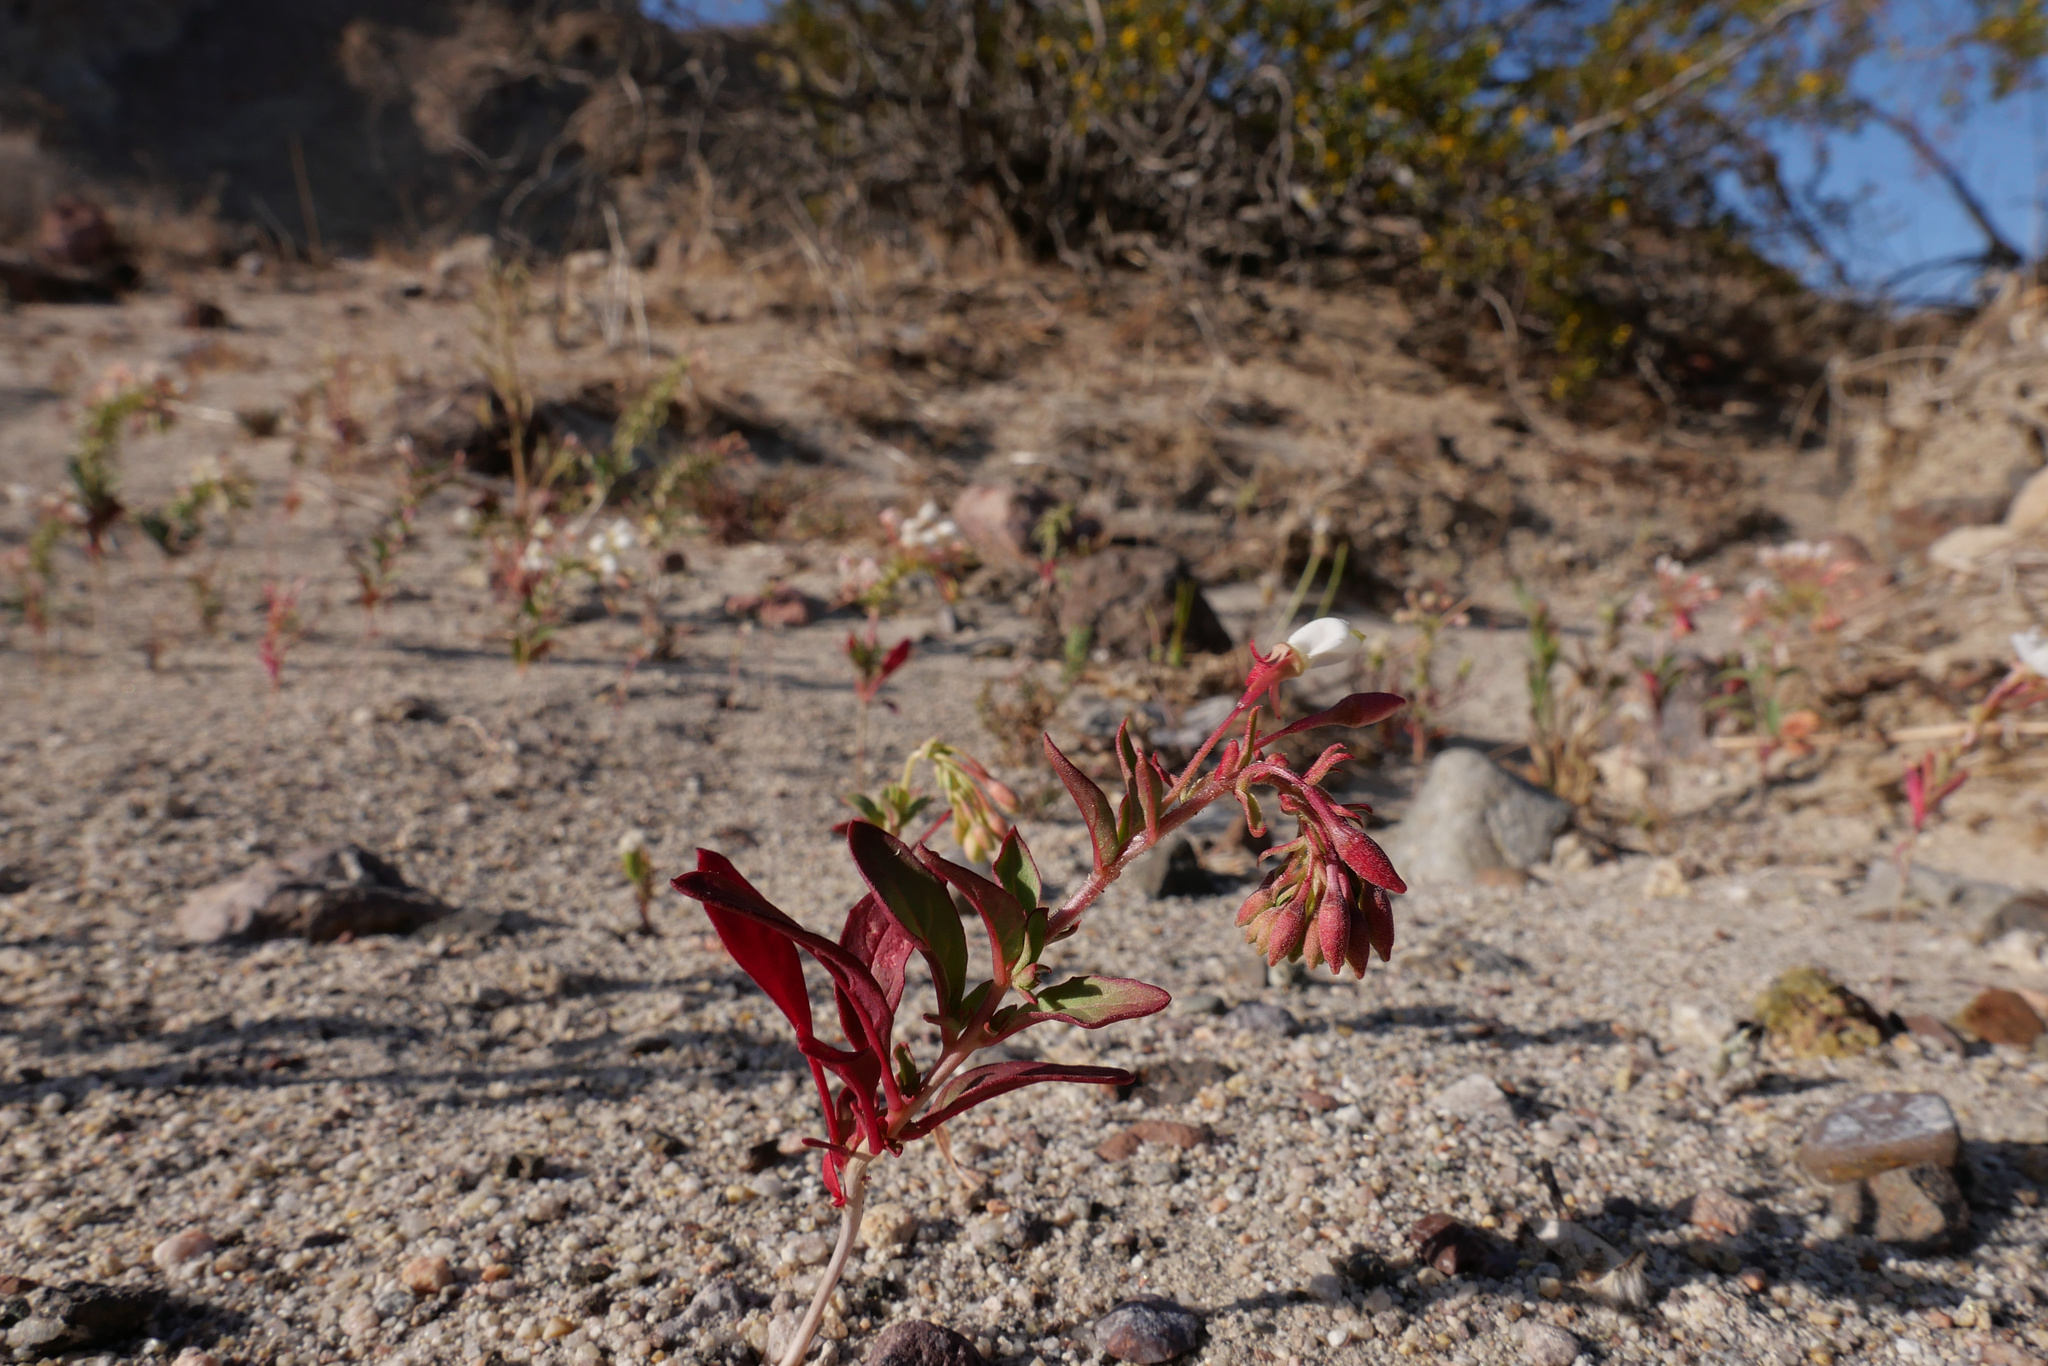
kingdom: Plantae
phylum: Tracheophyta
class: Magnoliopsida
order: Myrtales
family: Onagraceae
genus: Eremothera
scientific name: Eremothera boothii
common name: Booth's evening primrose
